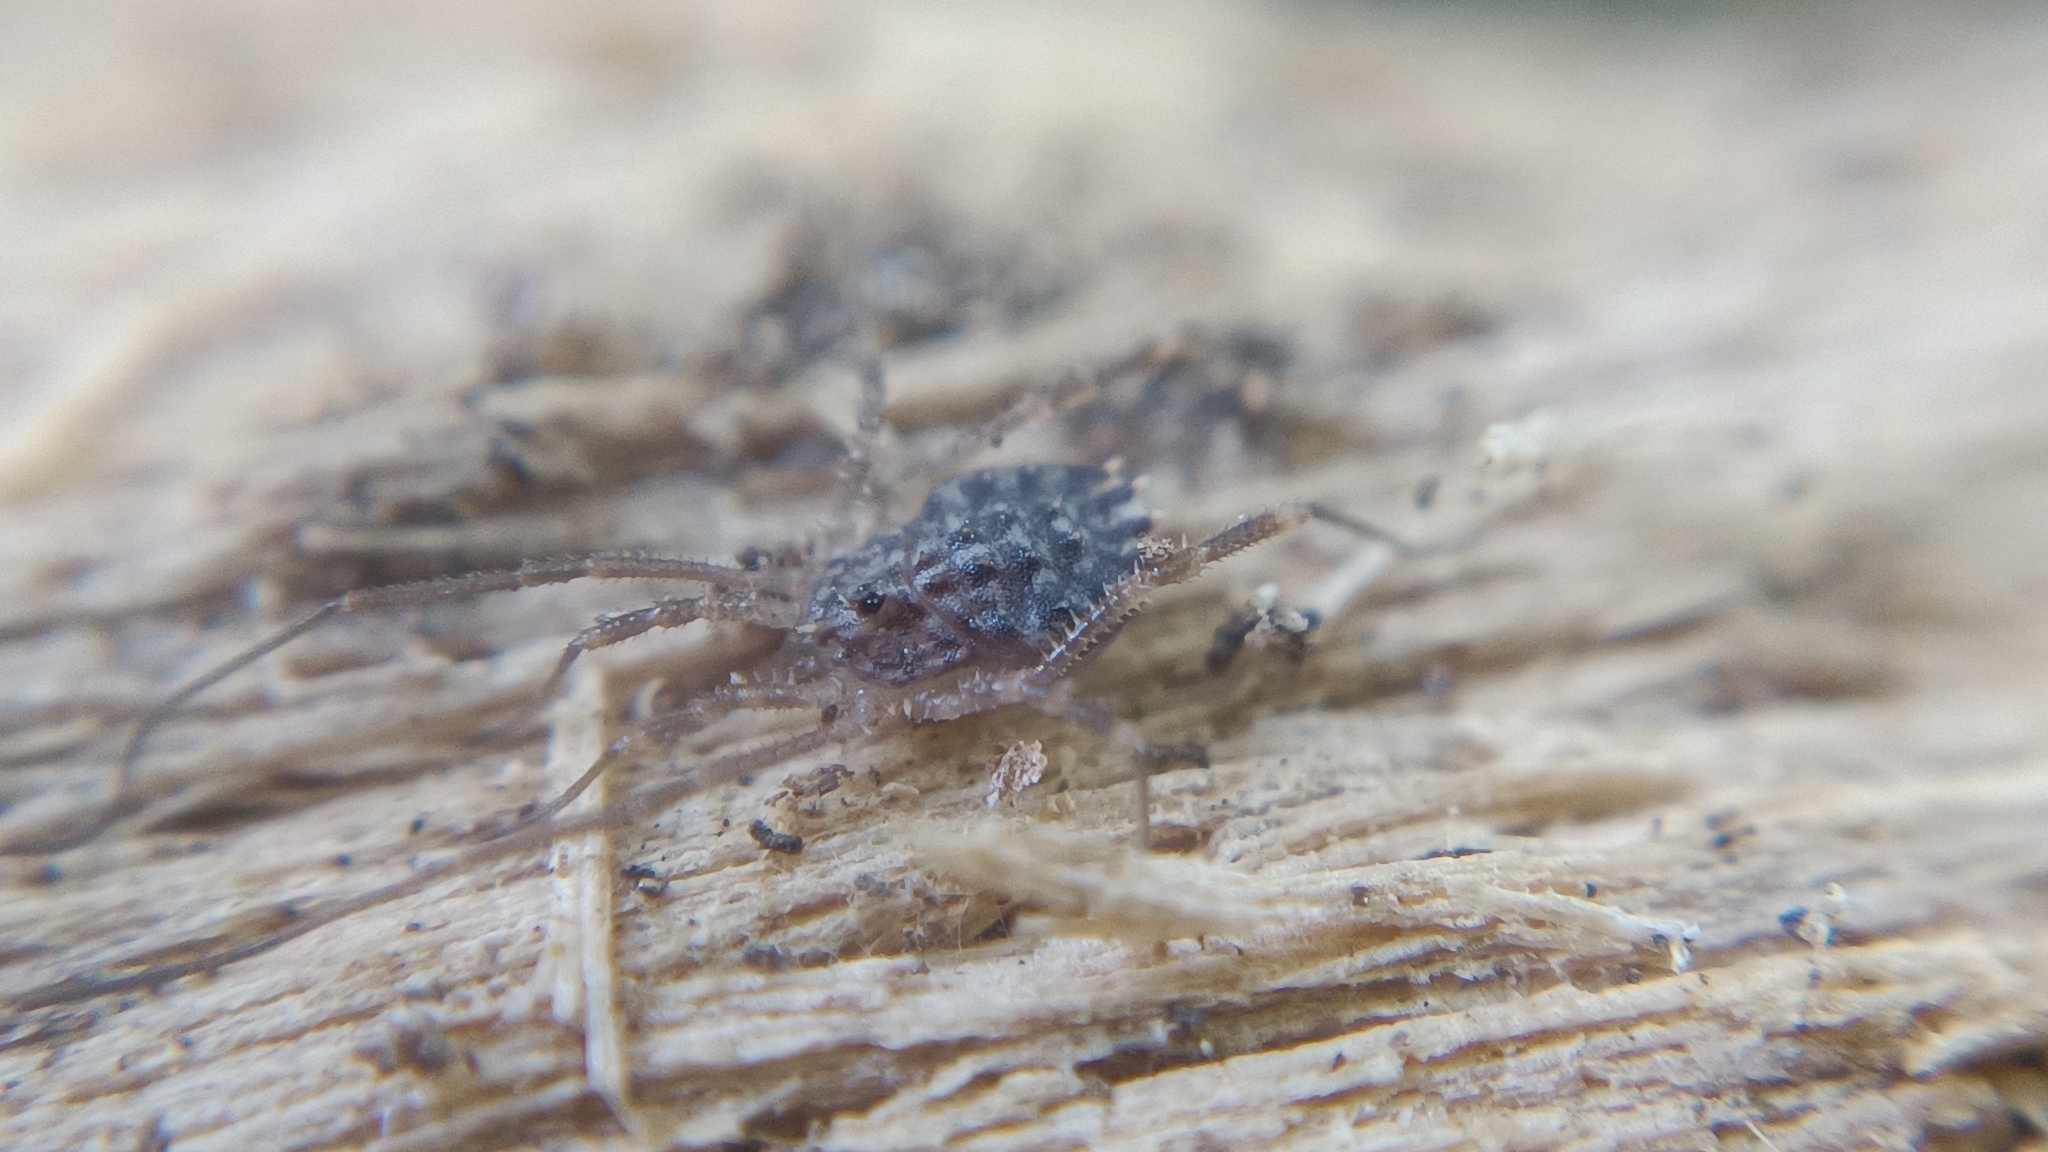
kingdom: Animalia
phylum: Arthropoda
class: Arachnida
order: Opiliones
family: Sclerosomatidae
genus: Homalenotus
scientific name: Homalenotus quadridentatus
